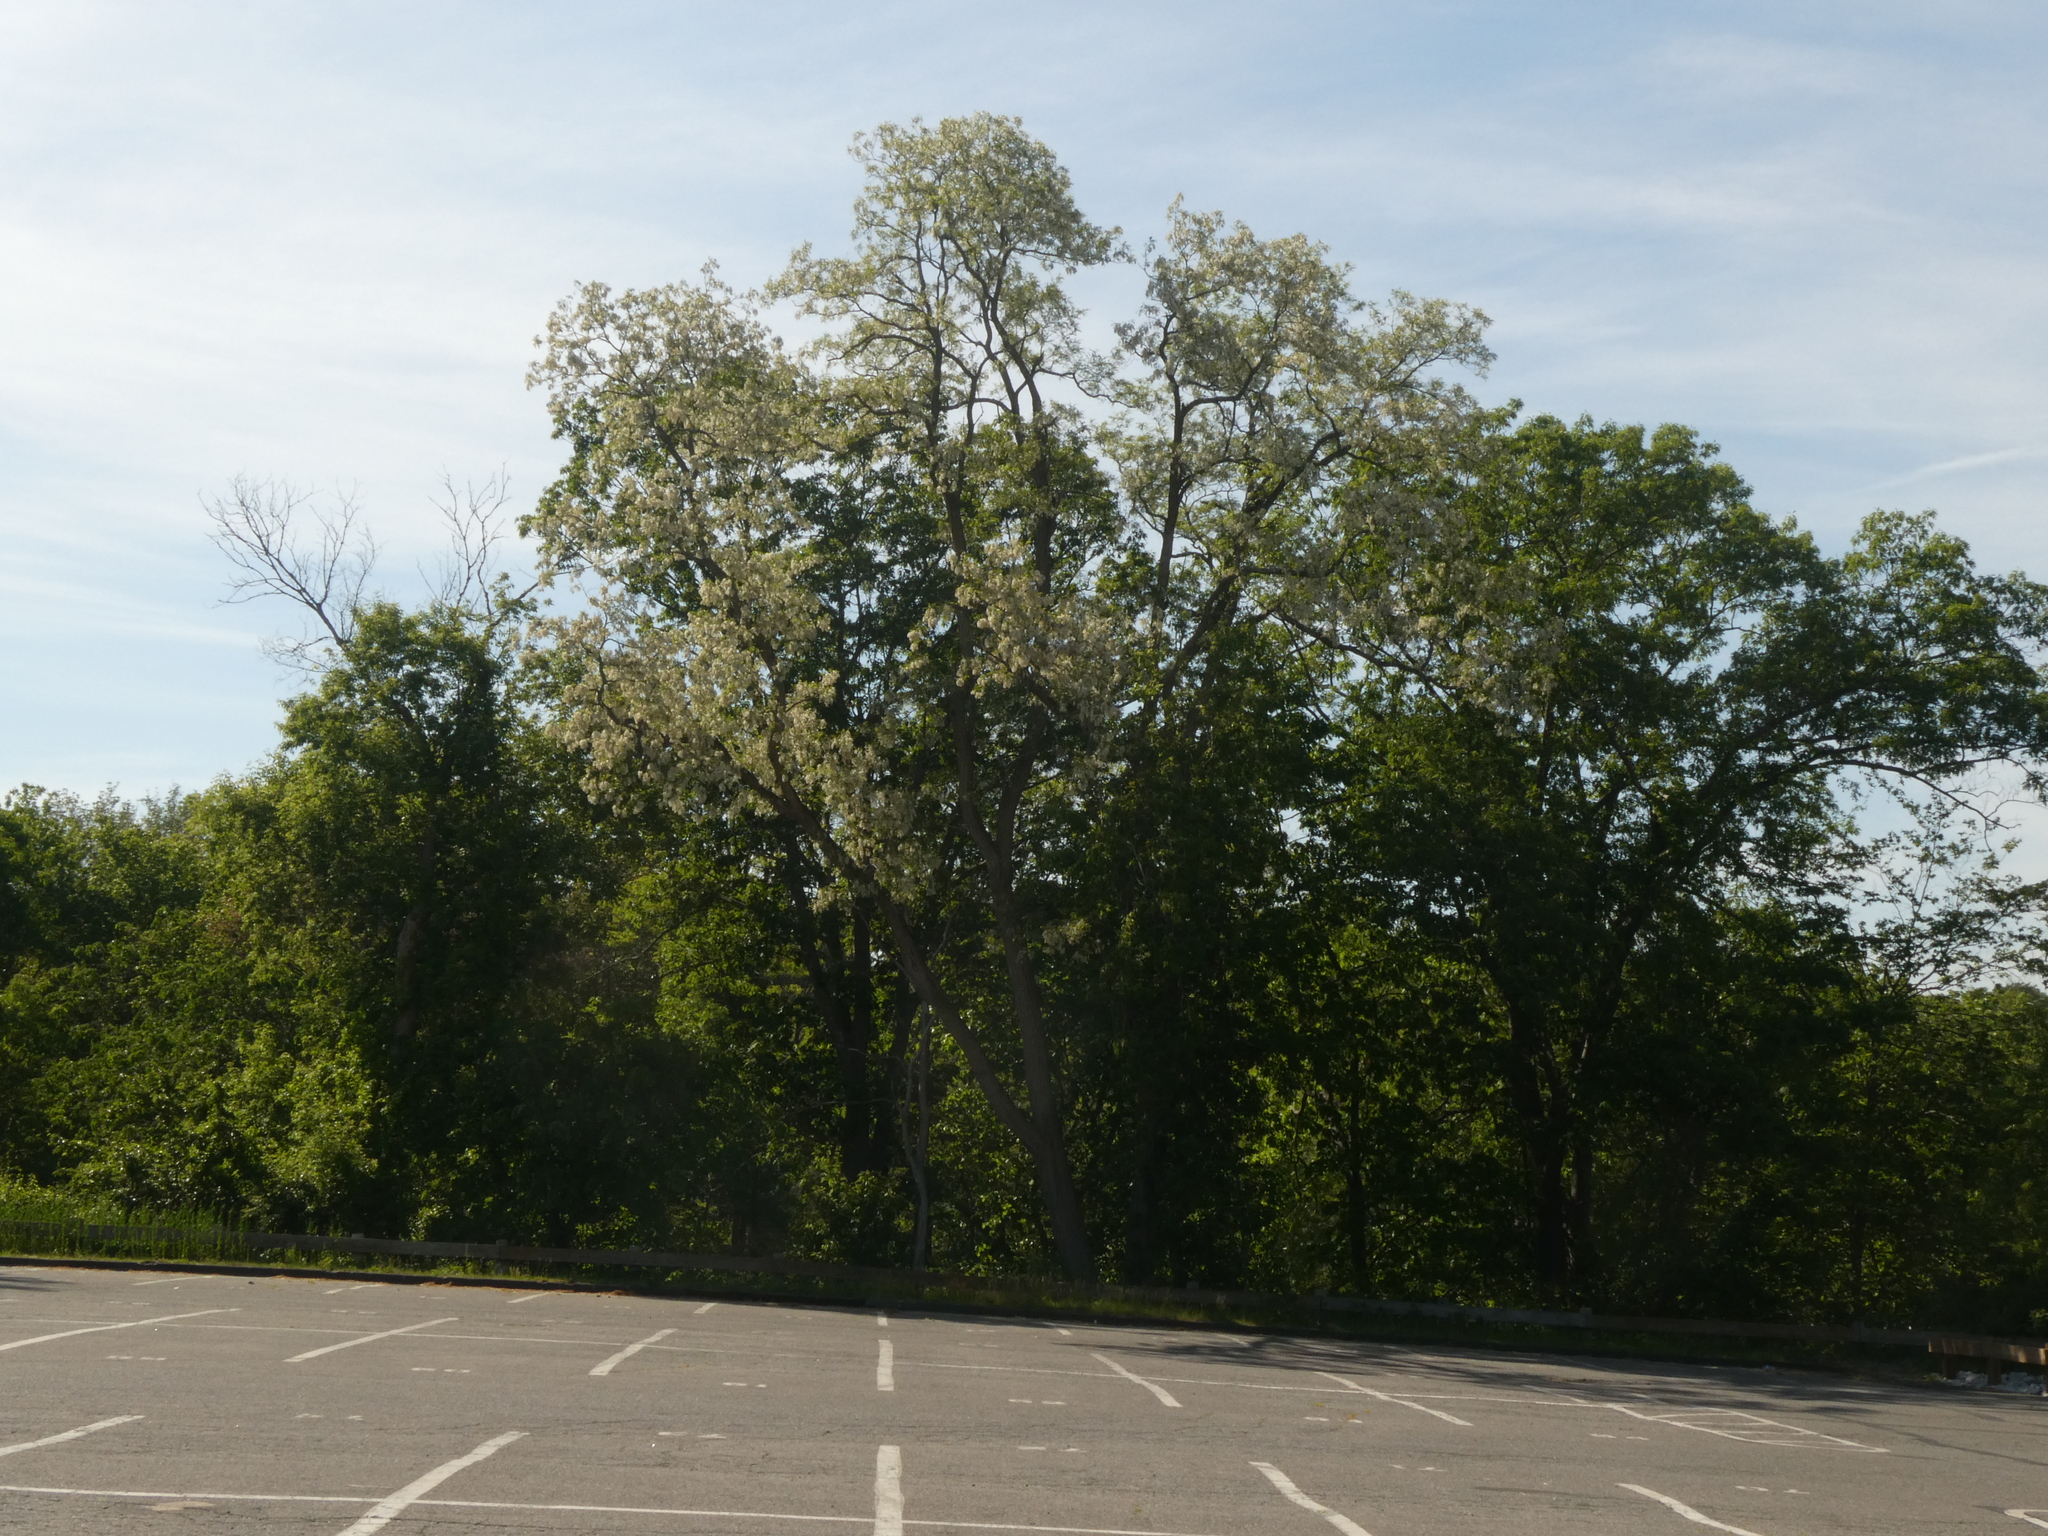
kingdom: Plantae
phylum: Tracheophyta
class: Magnoliopsida
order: Fabales
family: Fabaceae
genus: Robinia
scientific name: Robinia pseudoacacia
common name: Black locust
